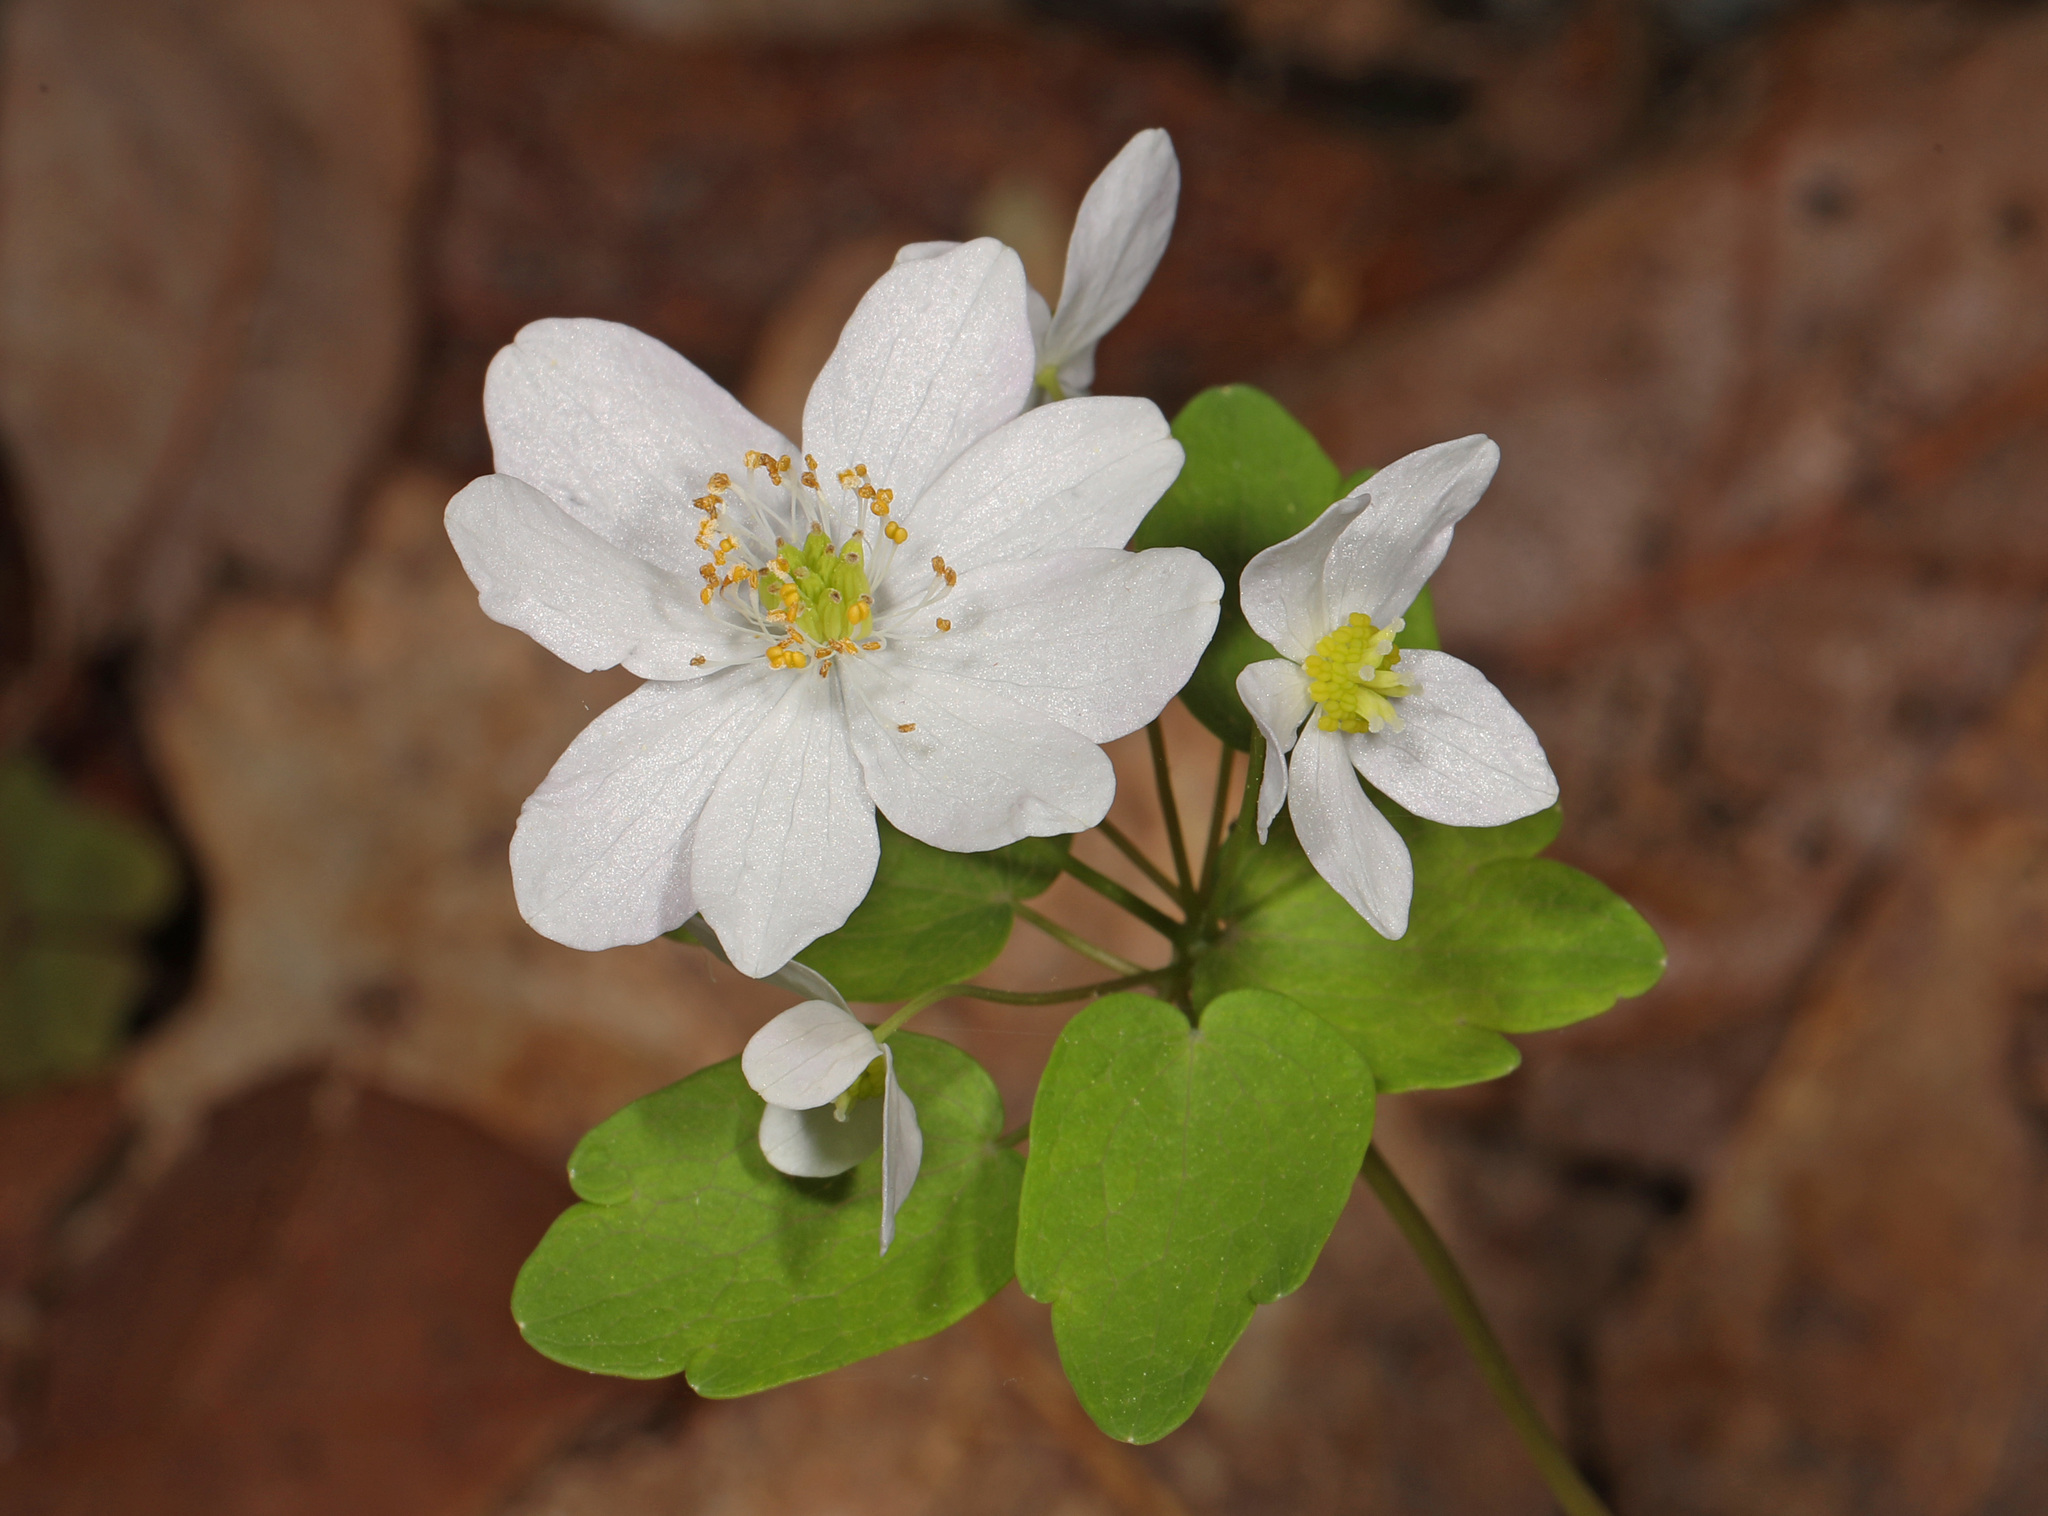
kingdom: Plantae
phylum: Tracheophyta
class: Magnoliopsida
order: Ranunculales
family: Ranunculaceae
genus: Thalictrum
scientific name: Thalictrum thalictroides
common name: Rue-anemone
